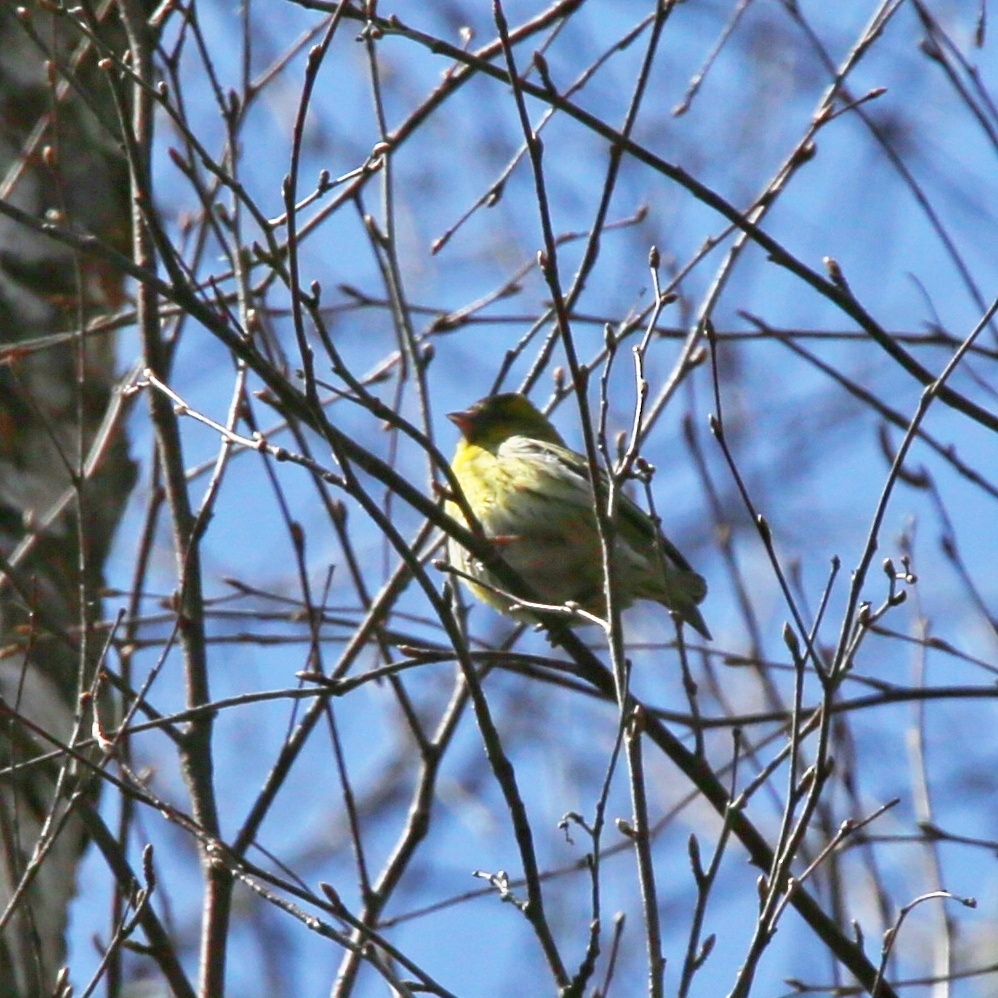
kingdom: Animalia
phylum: Chordata
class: Aves
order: Passeriformes
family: Fringillidae
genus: Spinus
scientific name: Spinus spinus
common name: Eurasian siskin
